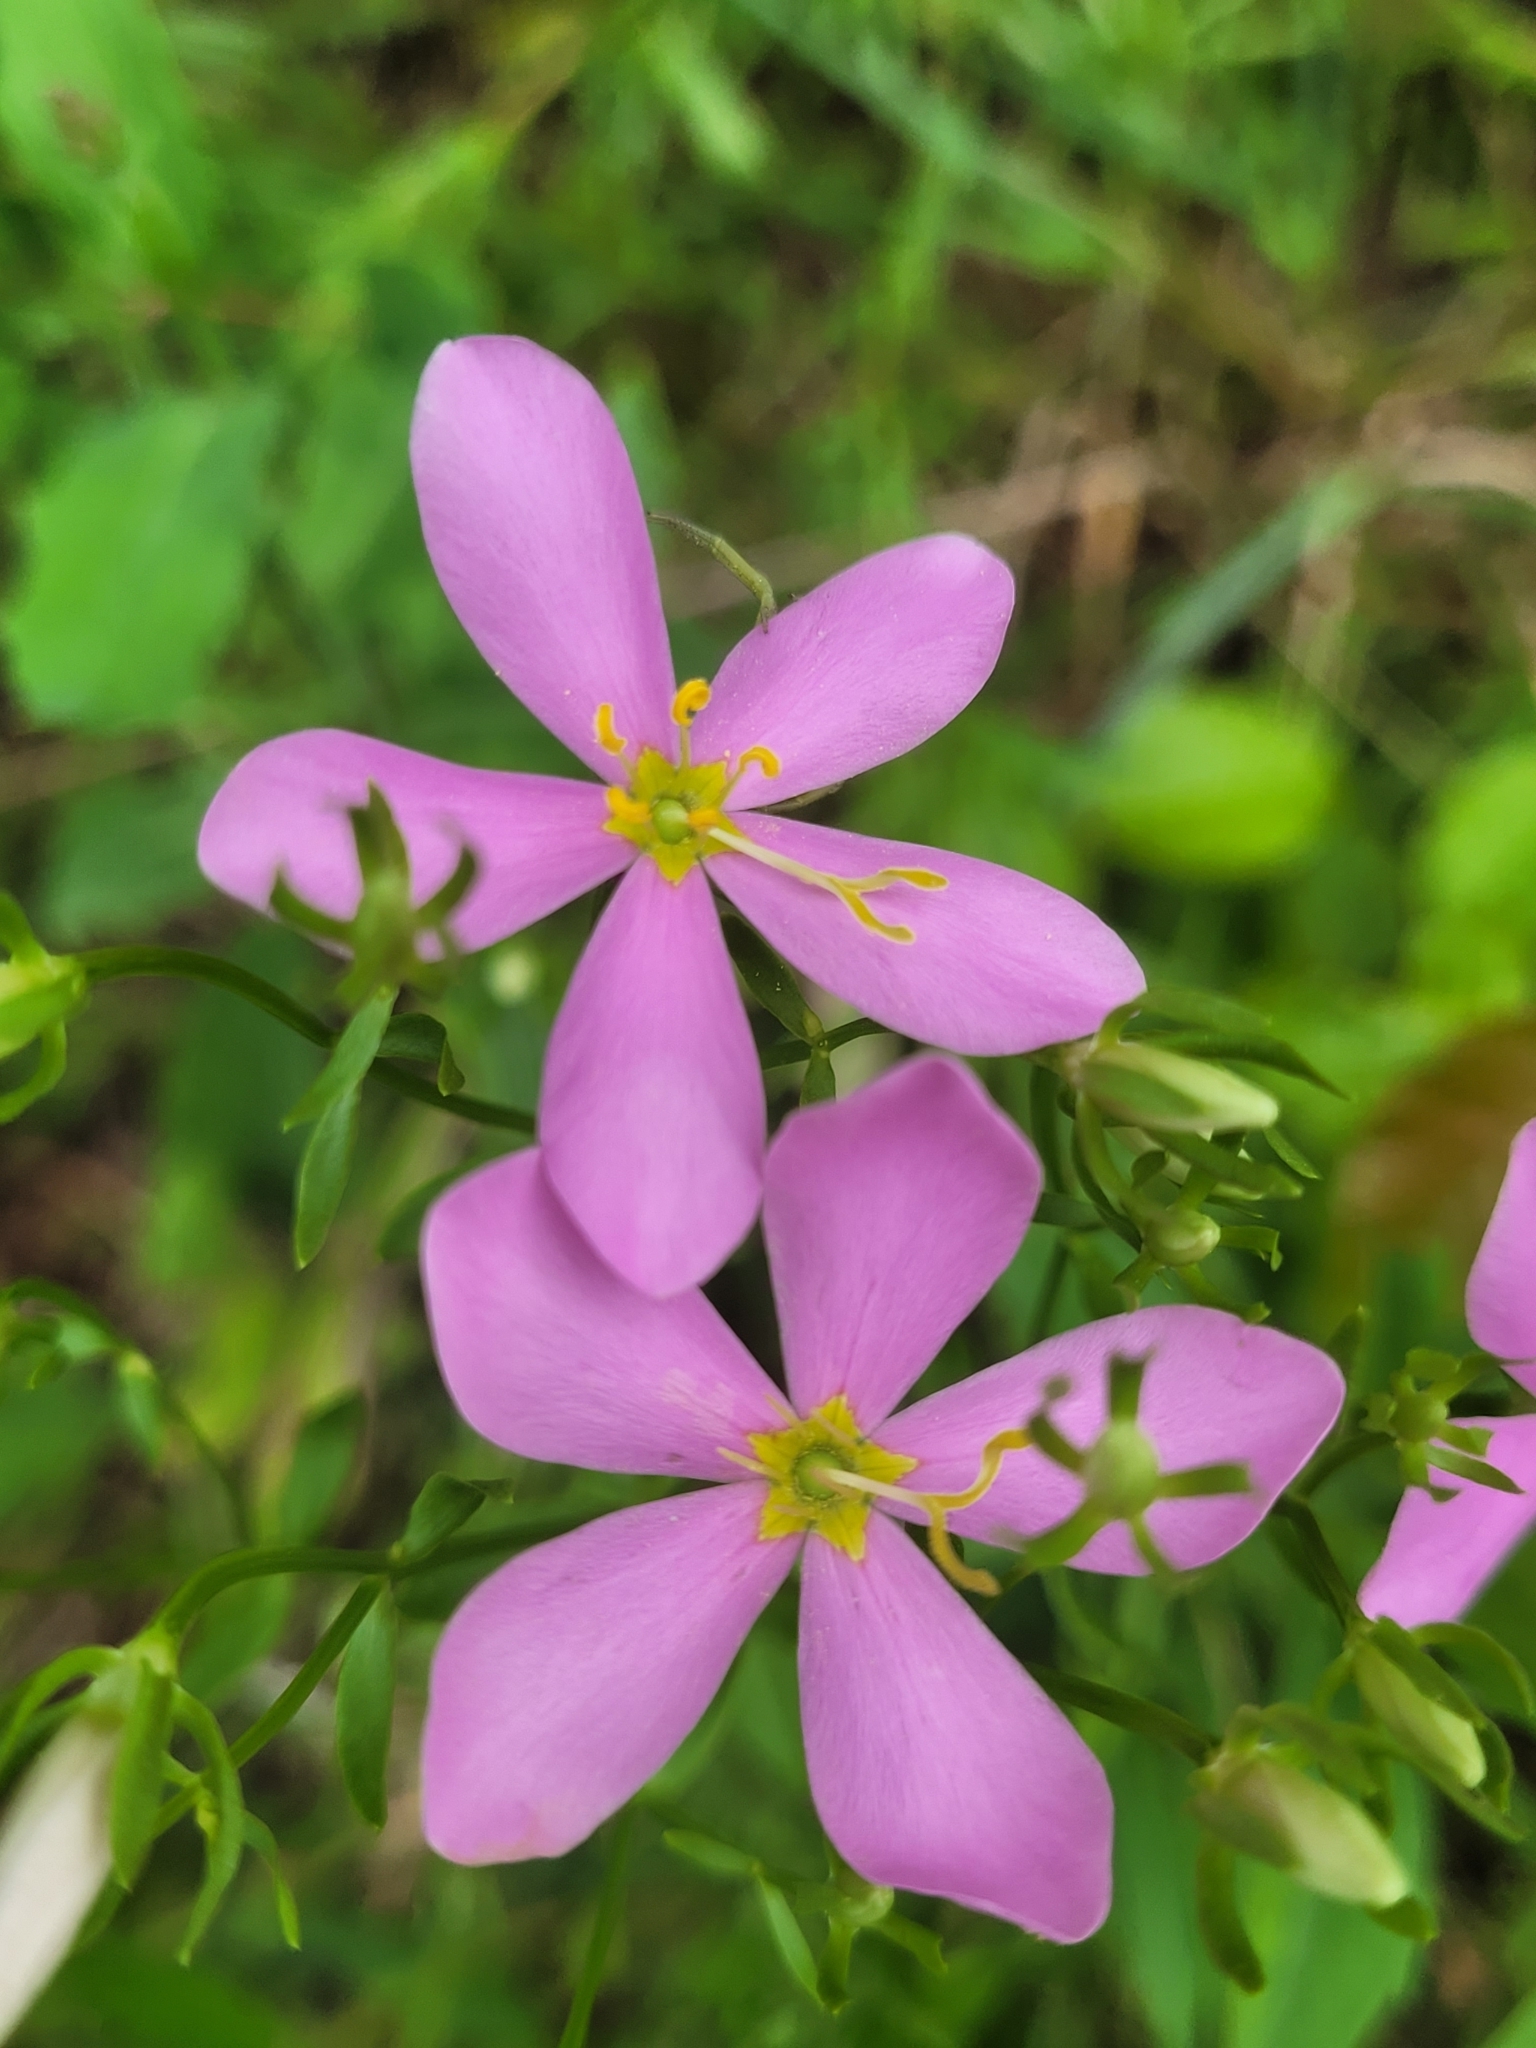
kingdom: Plantae
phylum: Tracheophyta
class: Magnoliopsida
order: Gentianales
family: Gentianaceae
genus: Sabatia
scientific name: Sabatia angularis
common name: Rose-pink
